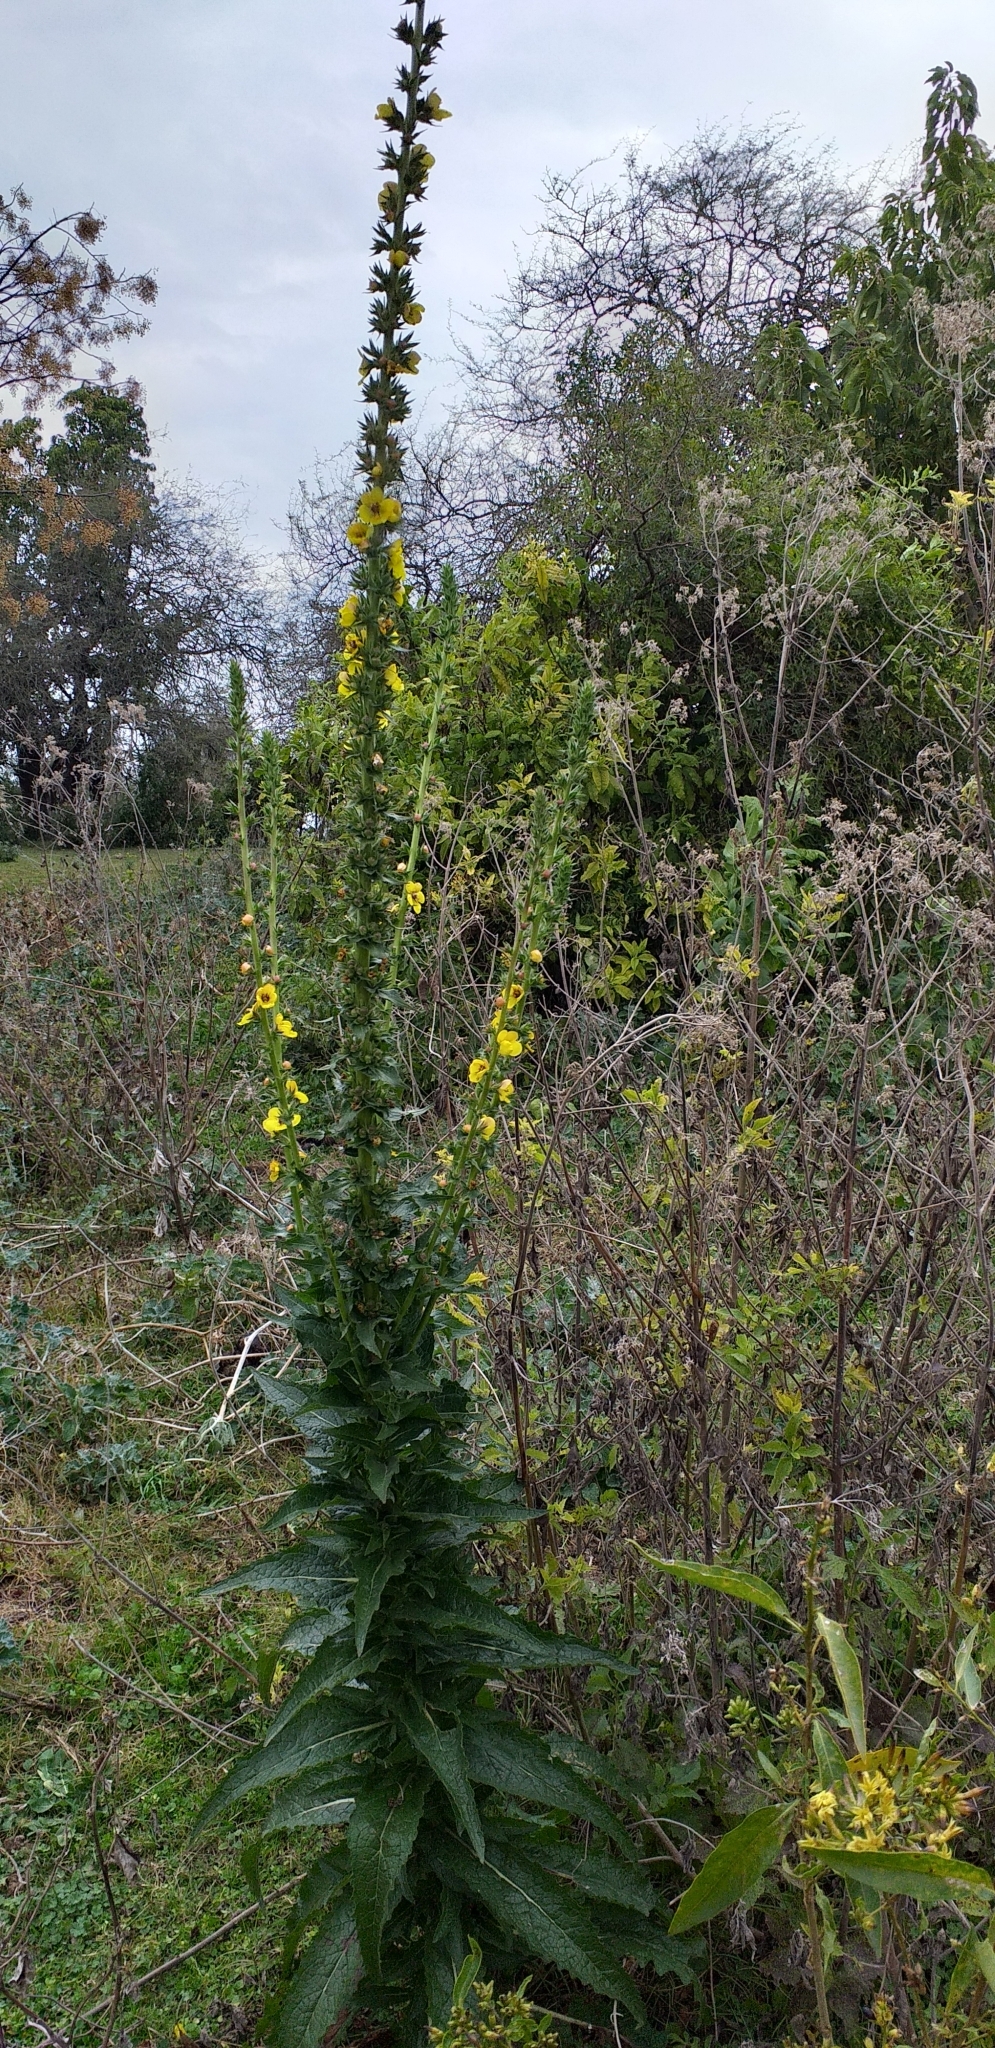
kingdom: Plantae
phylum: Tracheophyta
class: Magnoliopsida
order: Lamiales
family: Scrophulariaceae
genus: Verbascum
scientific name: Verbascum virgatum
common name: Twiggy mullein
